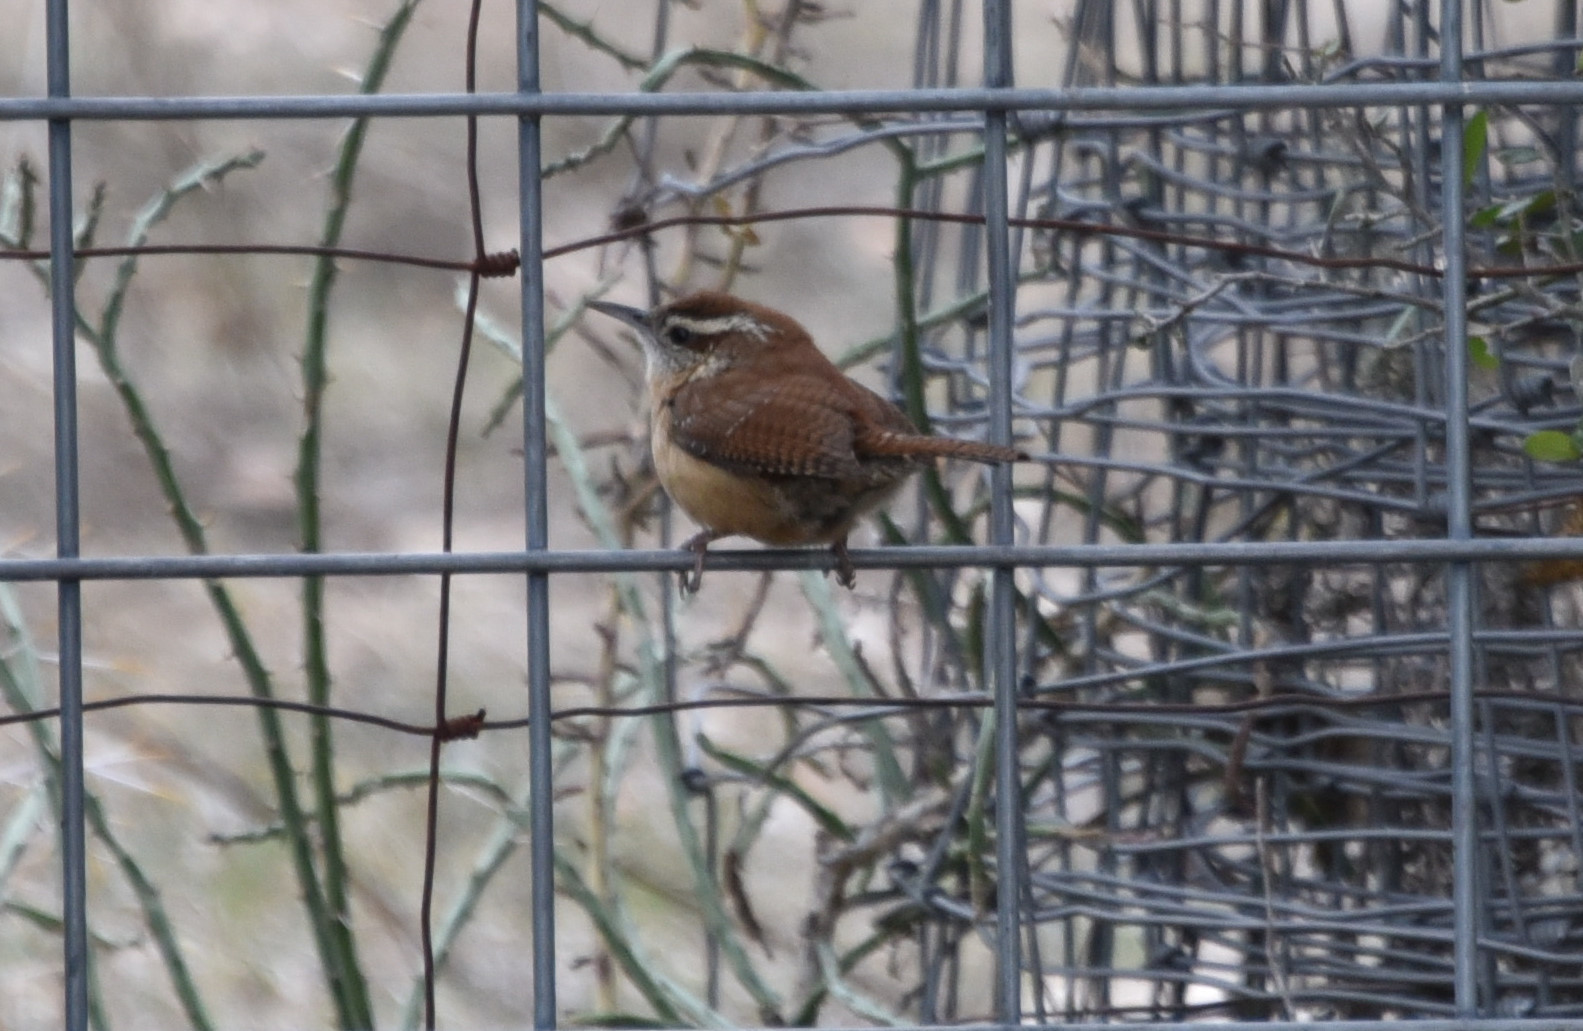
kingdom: Animalia
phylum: Chordata
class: Aves
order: Passeriformes
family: Troglodytidae
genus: Thryothorus
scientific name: Thryothorus ludovicianus
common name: Carolina wren
